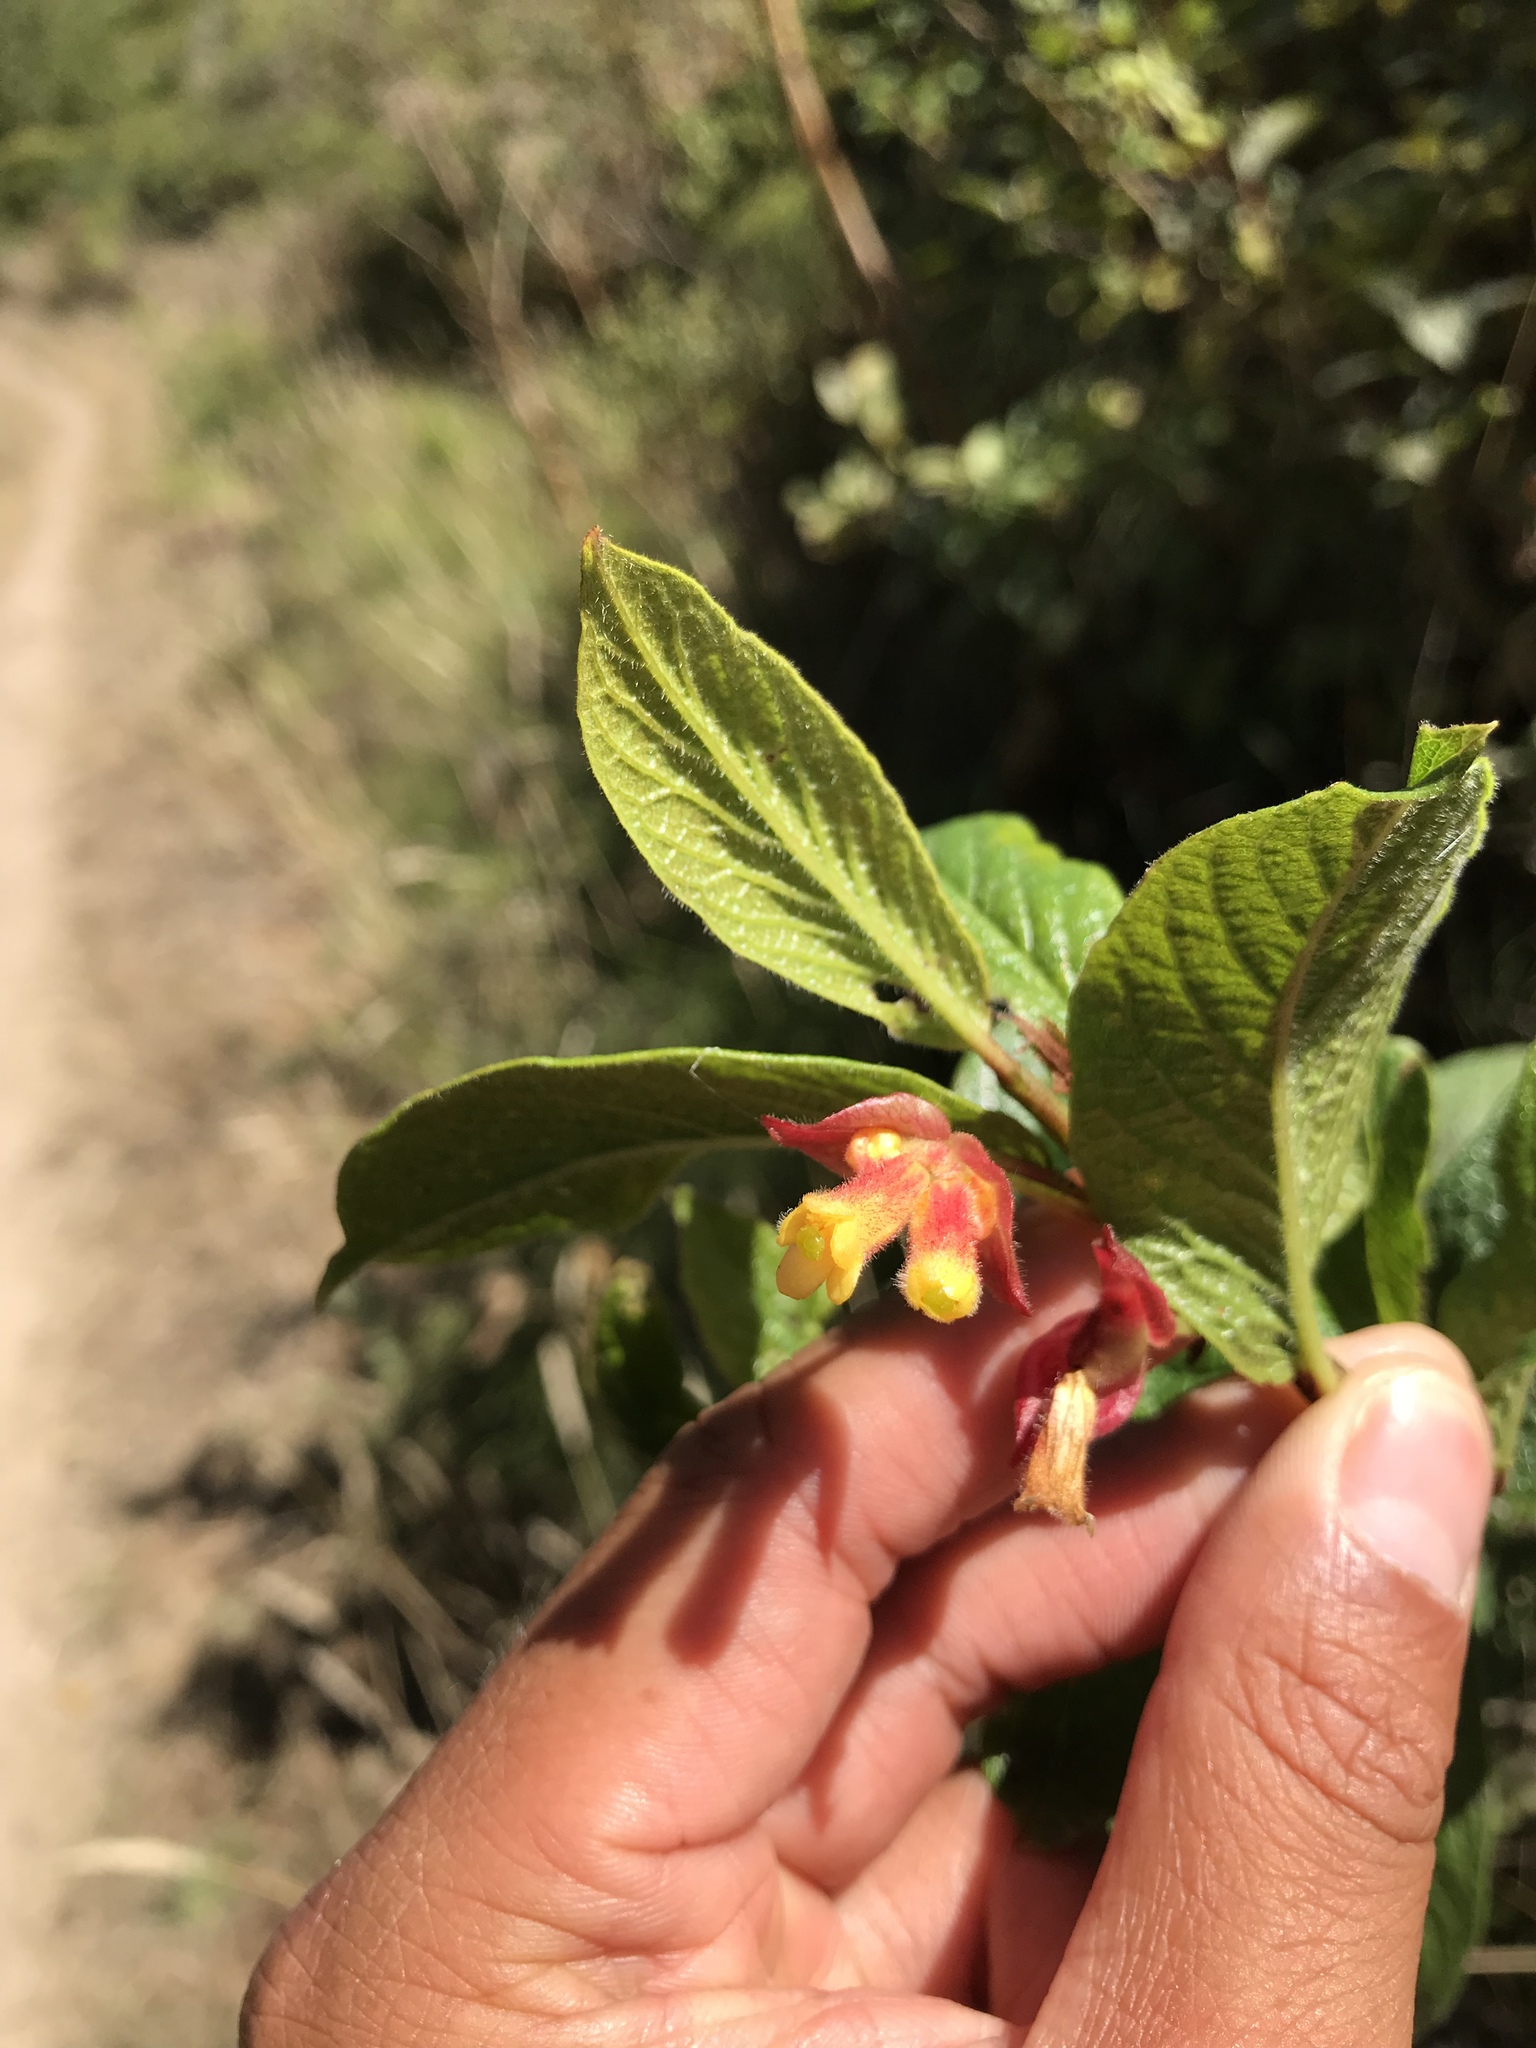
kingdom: Plantae
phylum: Tracheophyta
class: Magnoliopsida
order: Dipsacales
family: Caprifoliaceae
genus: Lonicera
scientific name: Lonicera involucrata
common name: Californian honeysuckle
